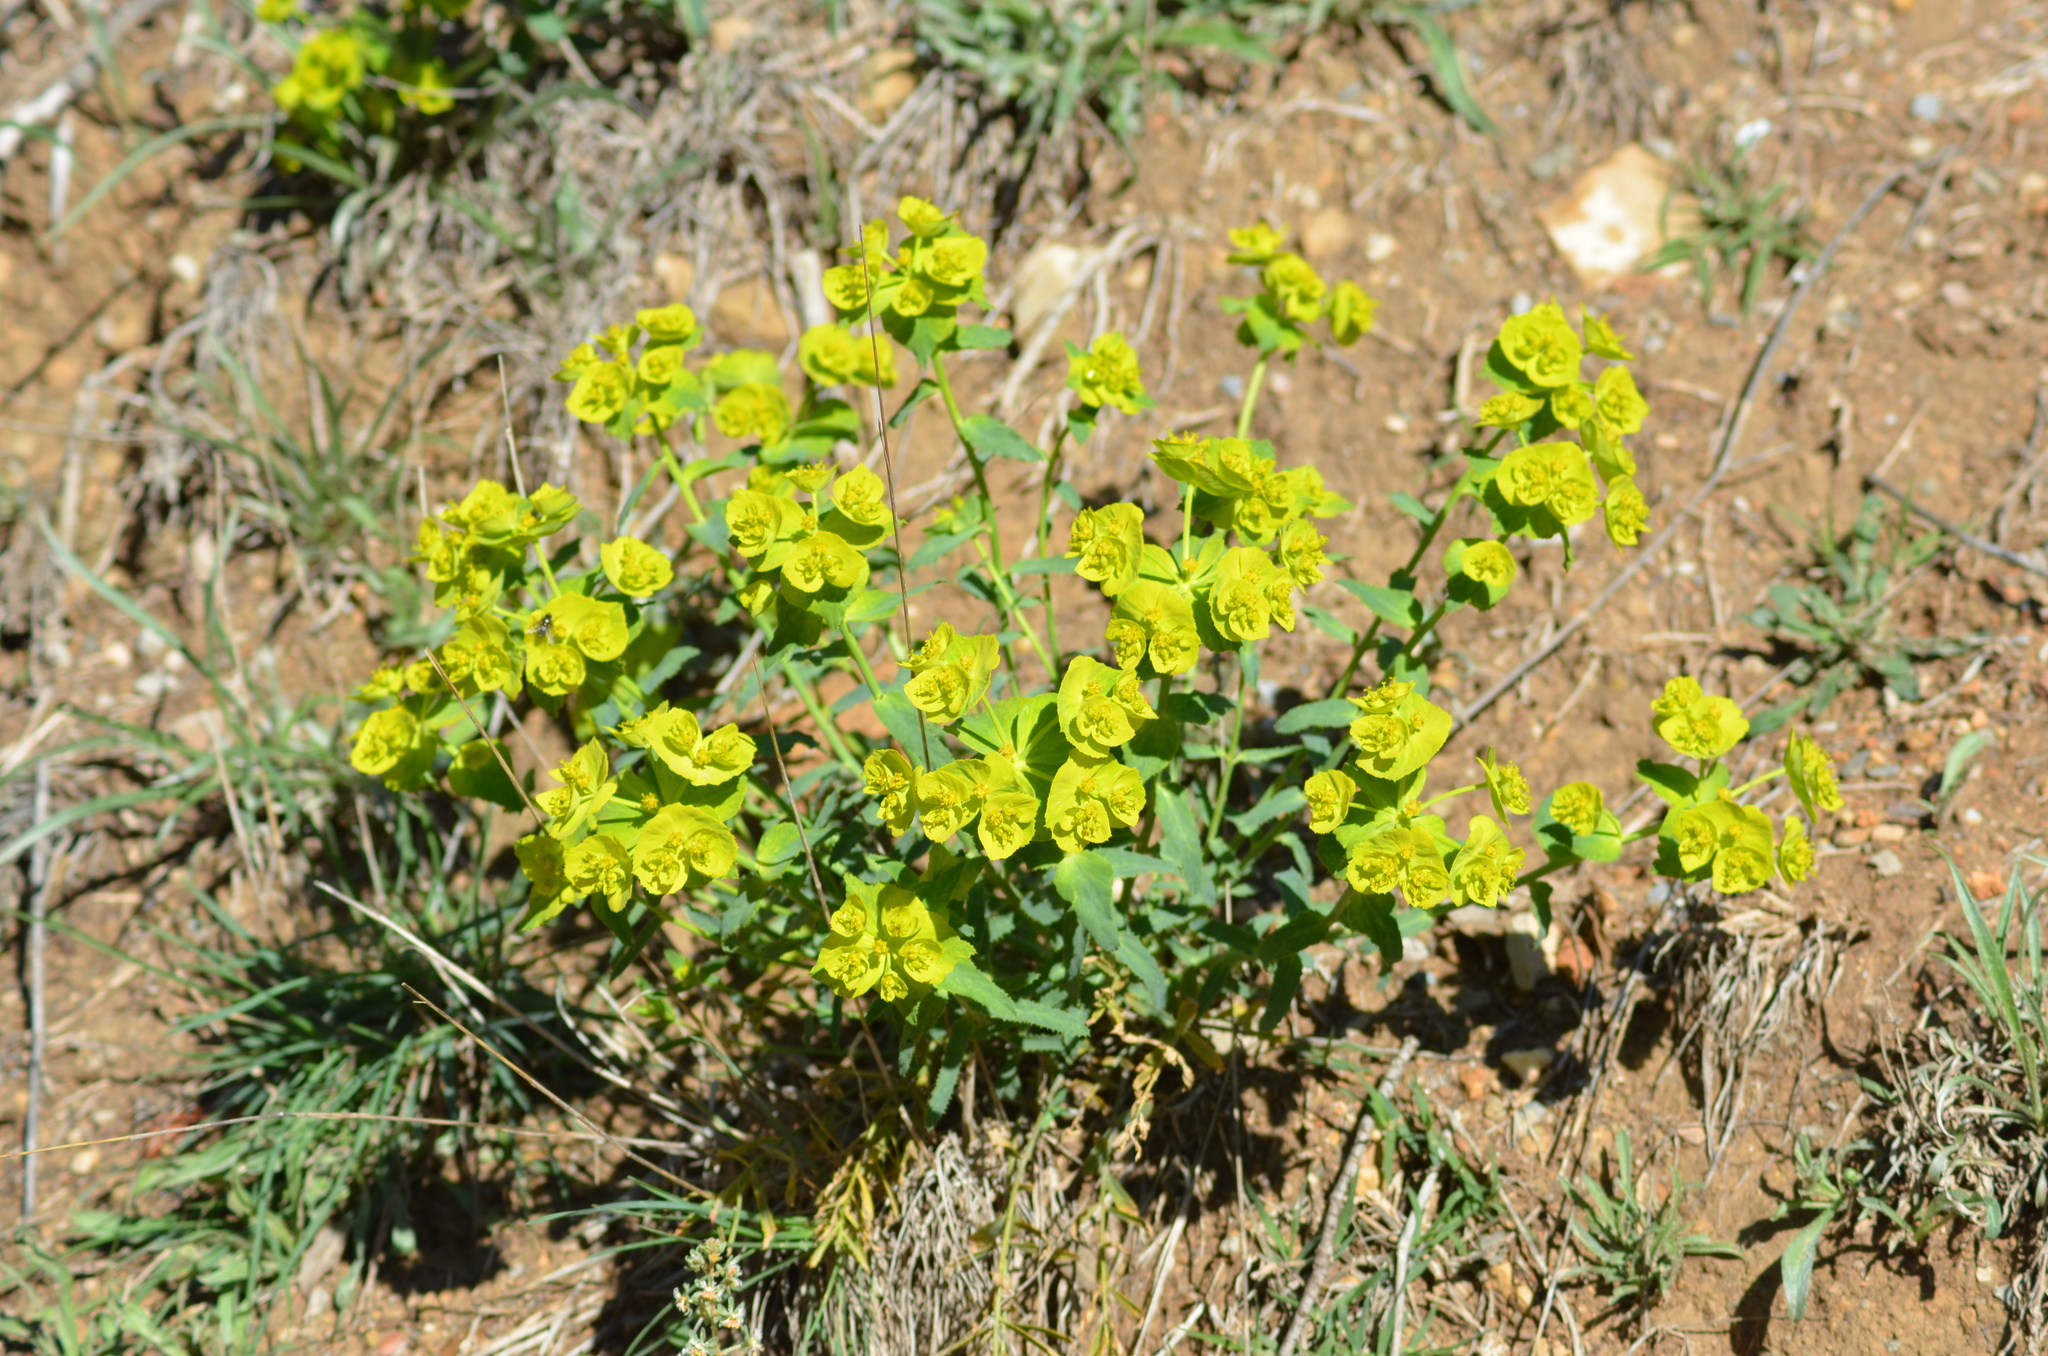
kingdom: Plantae
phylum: Tracheophyta
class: Magnoliopsida
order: Malpighiales
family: Euphorbiaceae
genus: Euphorbia
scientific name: Euphorbia serrata
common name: Serrate spurge
